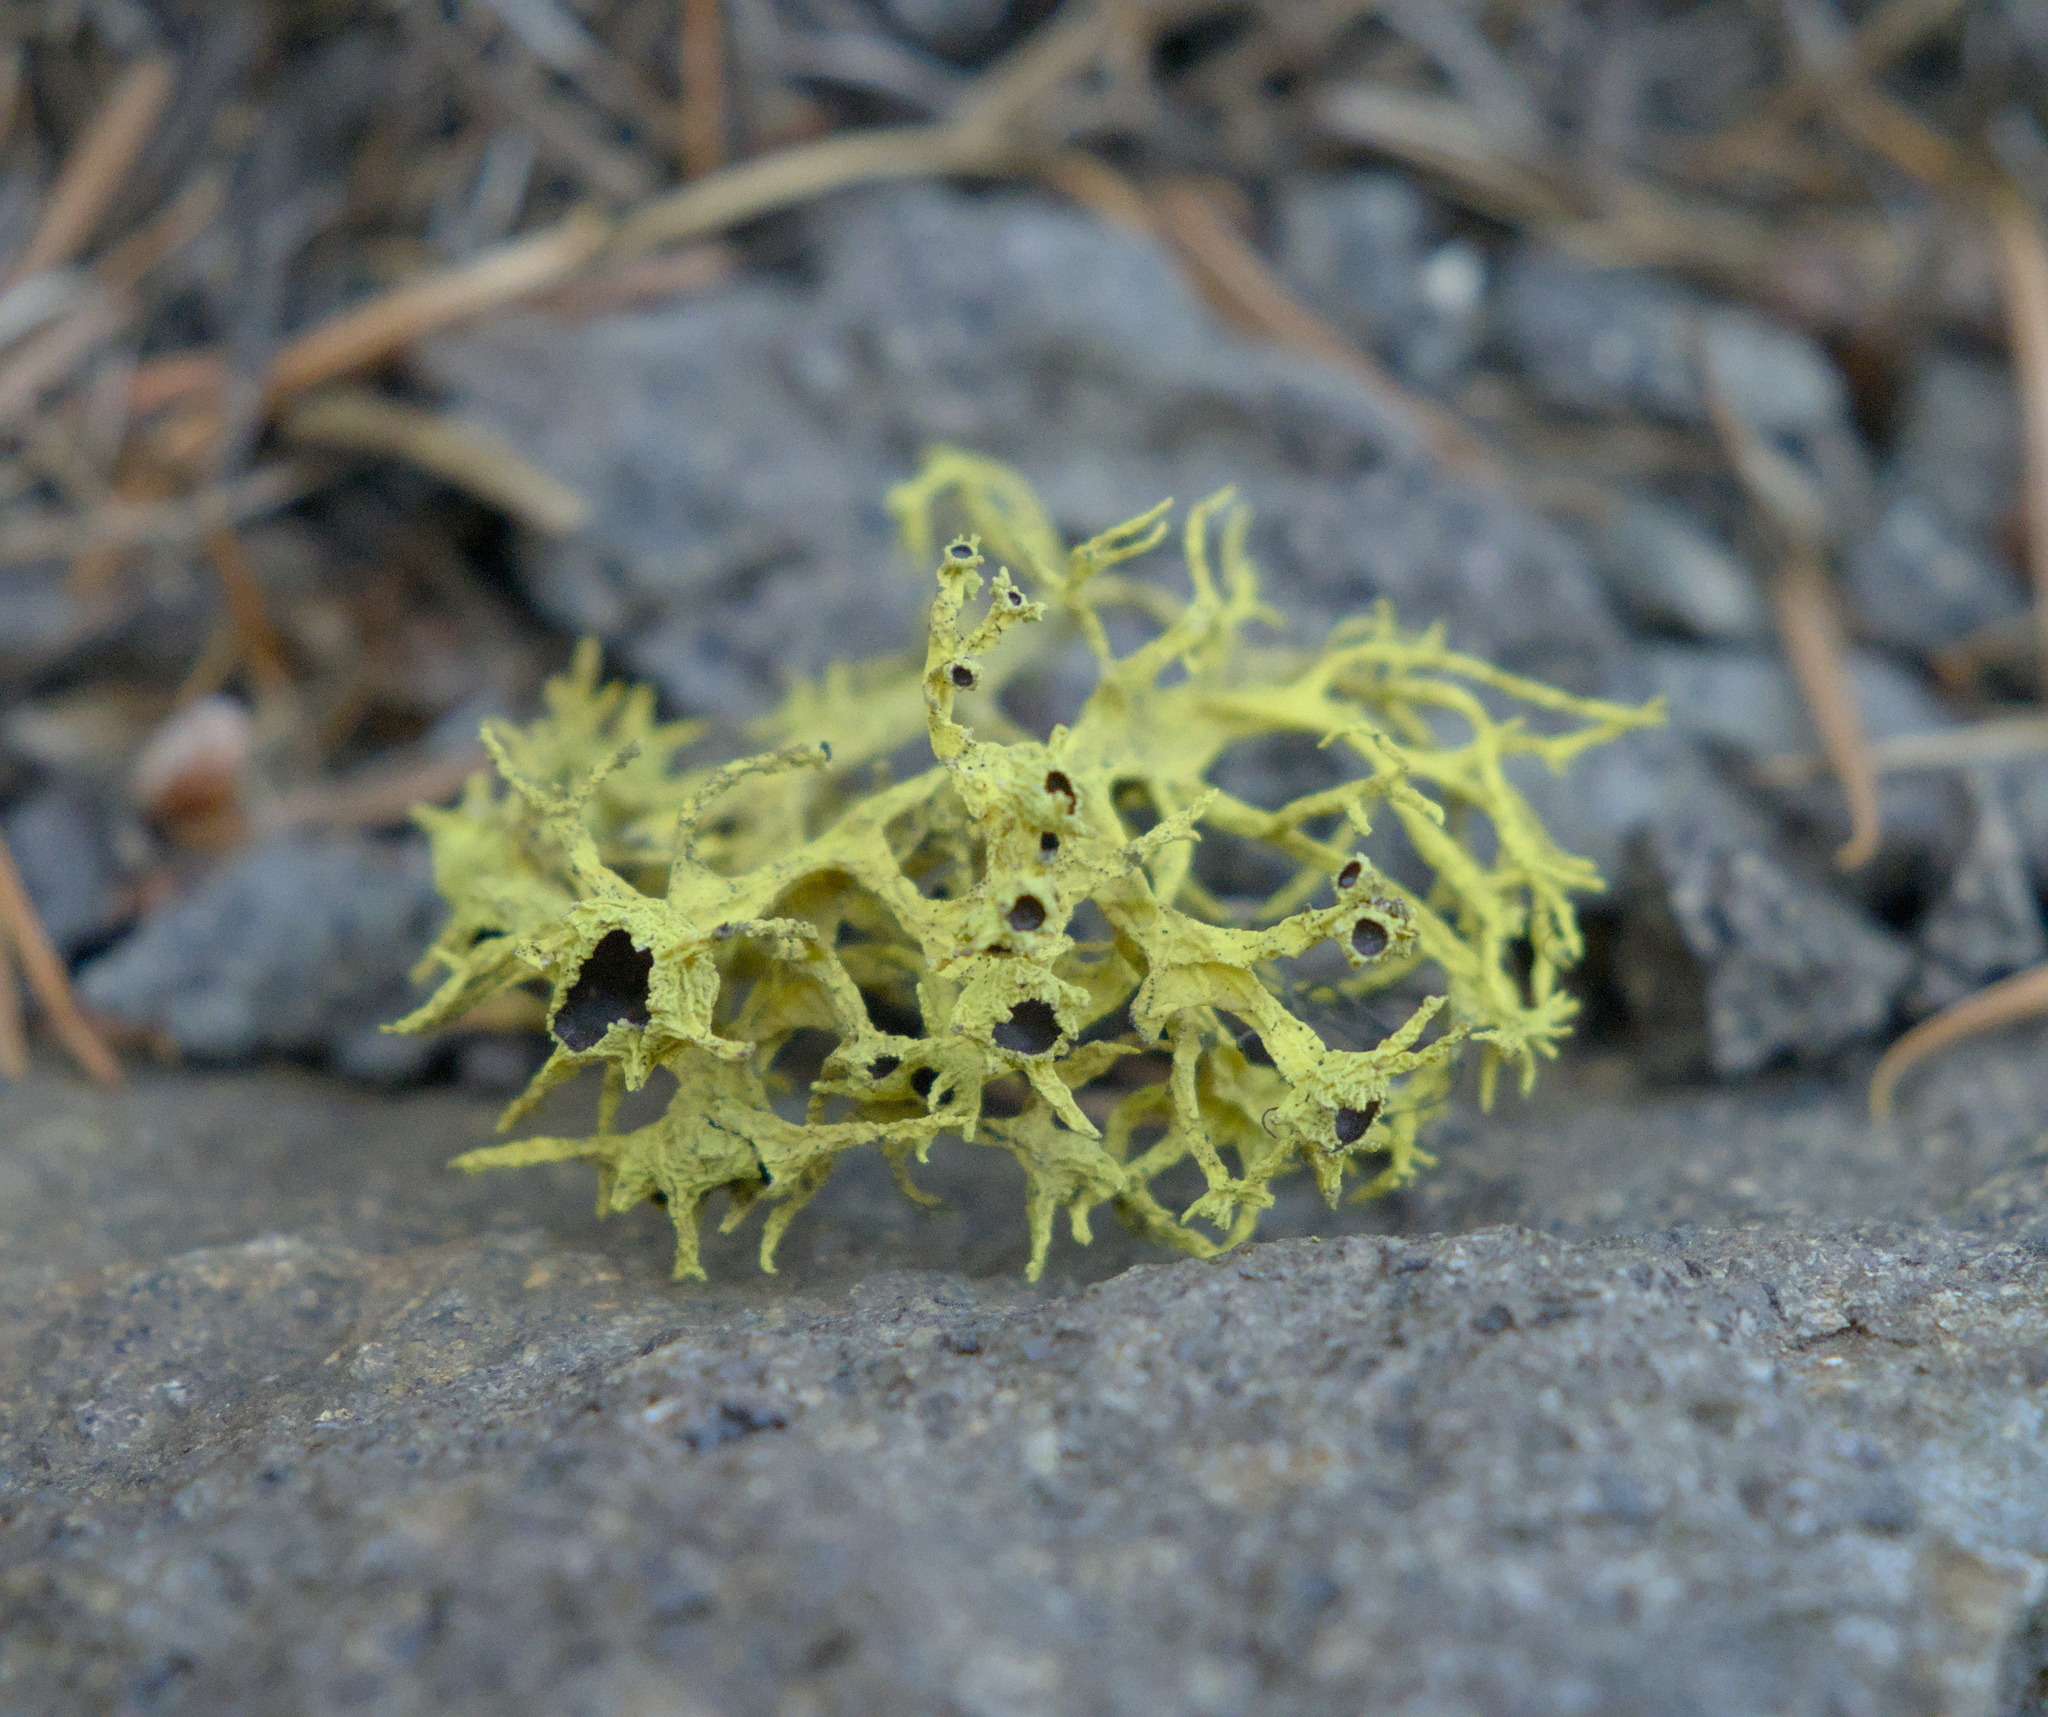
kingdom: Fungi
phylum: Ascomycota
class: Lecanoromycetes
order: Lecanorales
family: Parmeliaceae
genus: Letharia
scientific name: Letharia columbiana
